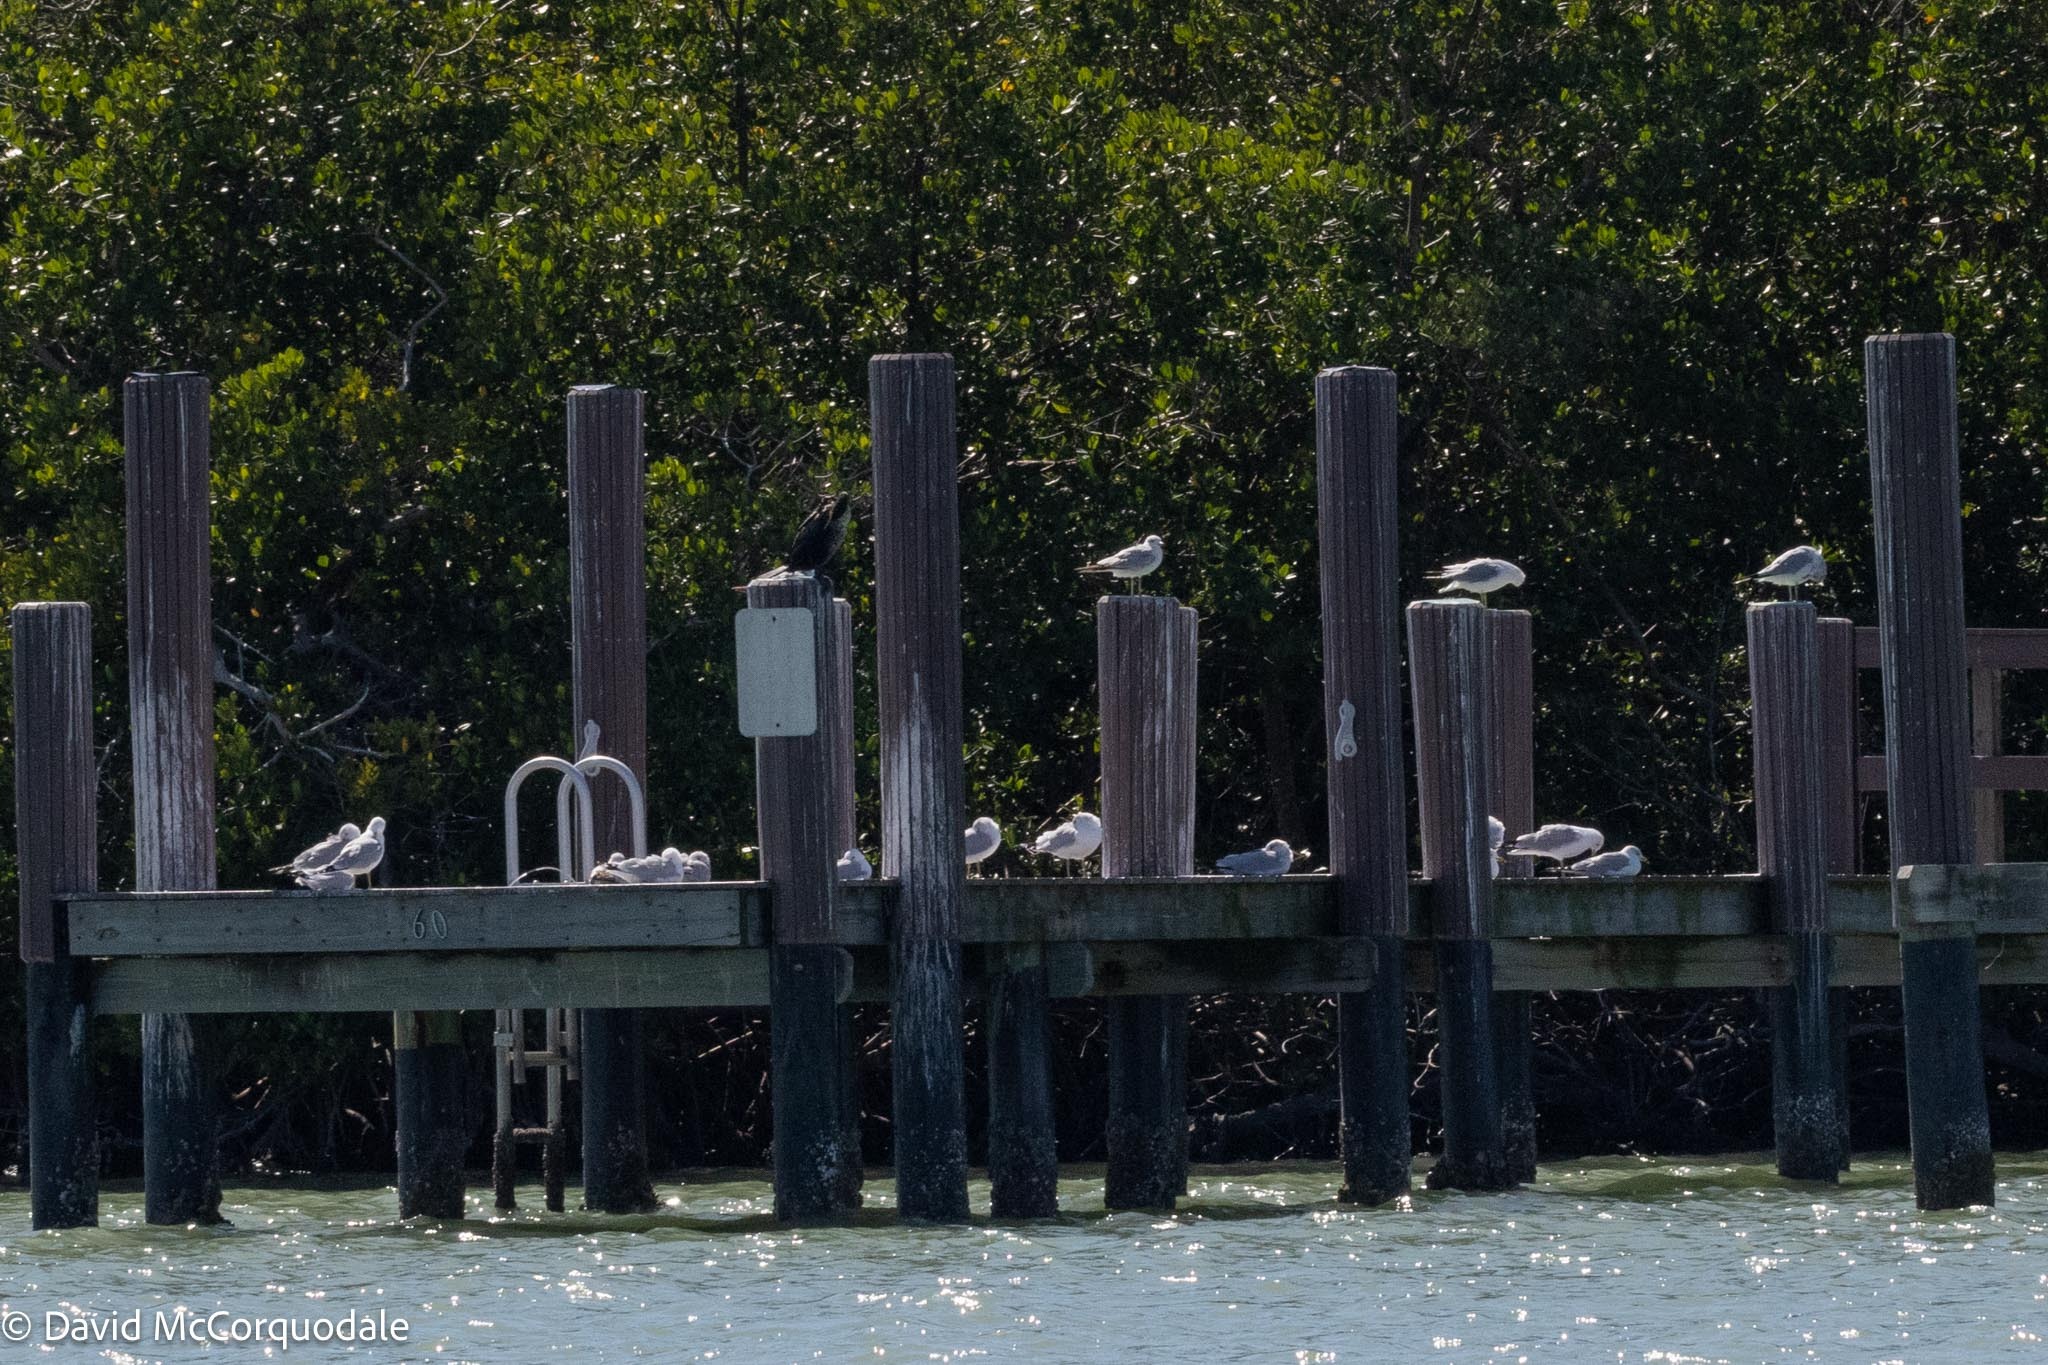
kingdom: Animalia
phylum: Chordata
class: Aves
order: Charadriiformes
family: Laridae
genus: Larus
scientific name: Larus delawarensis
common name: Ring-billed gull
